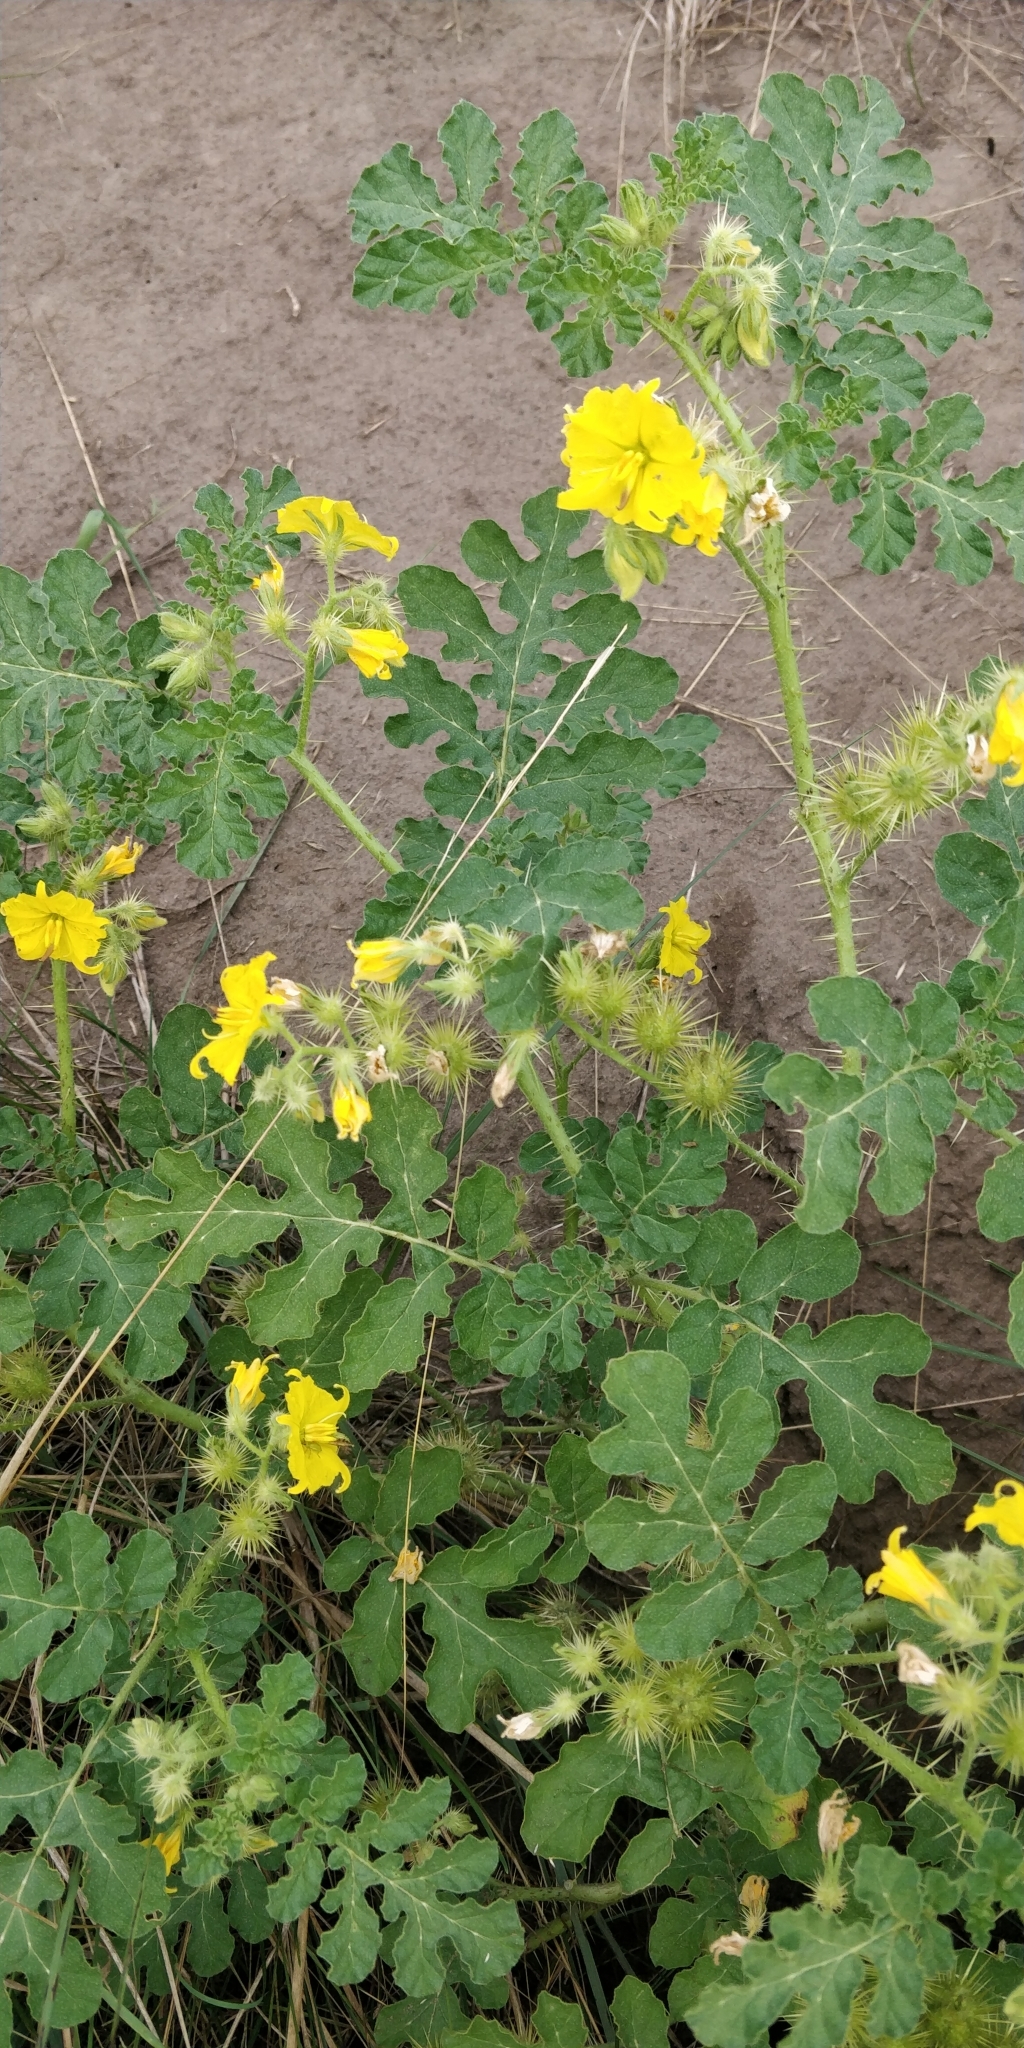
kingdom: Plantae
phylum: Tracheophyta
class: Magnoliopsida
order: Solanales
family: Solanaceae
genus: Solanum
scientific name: Solanum angustifolium
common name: Buffalobur nightshade
